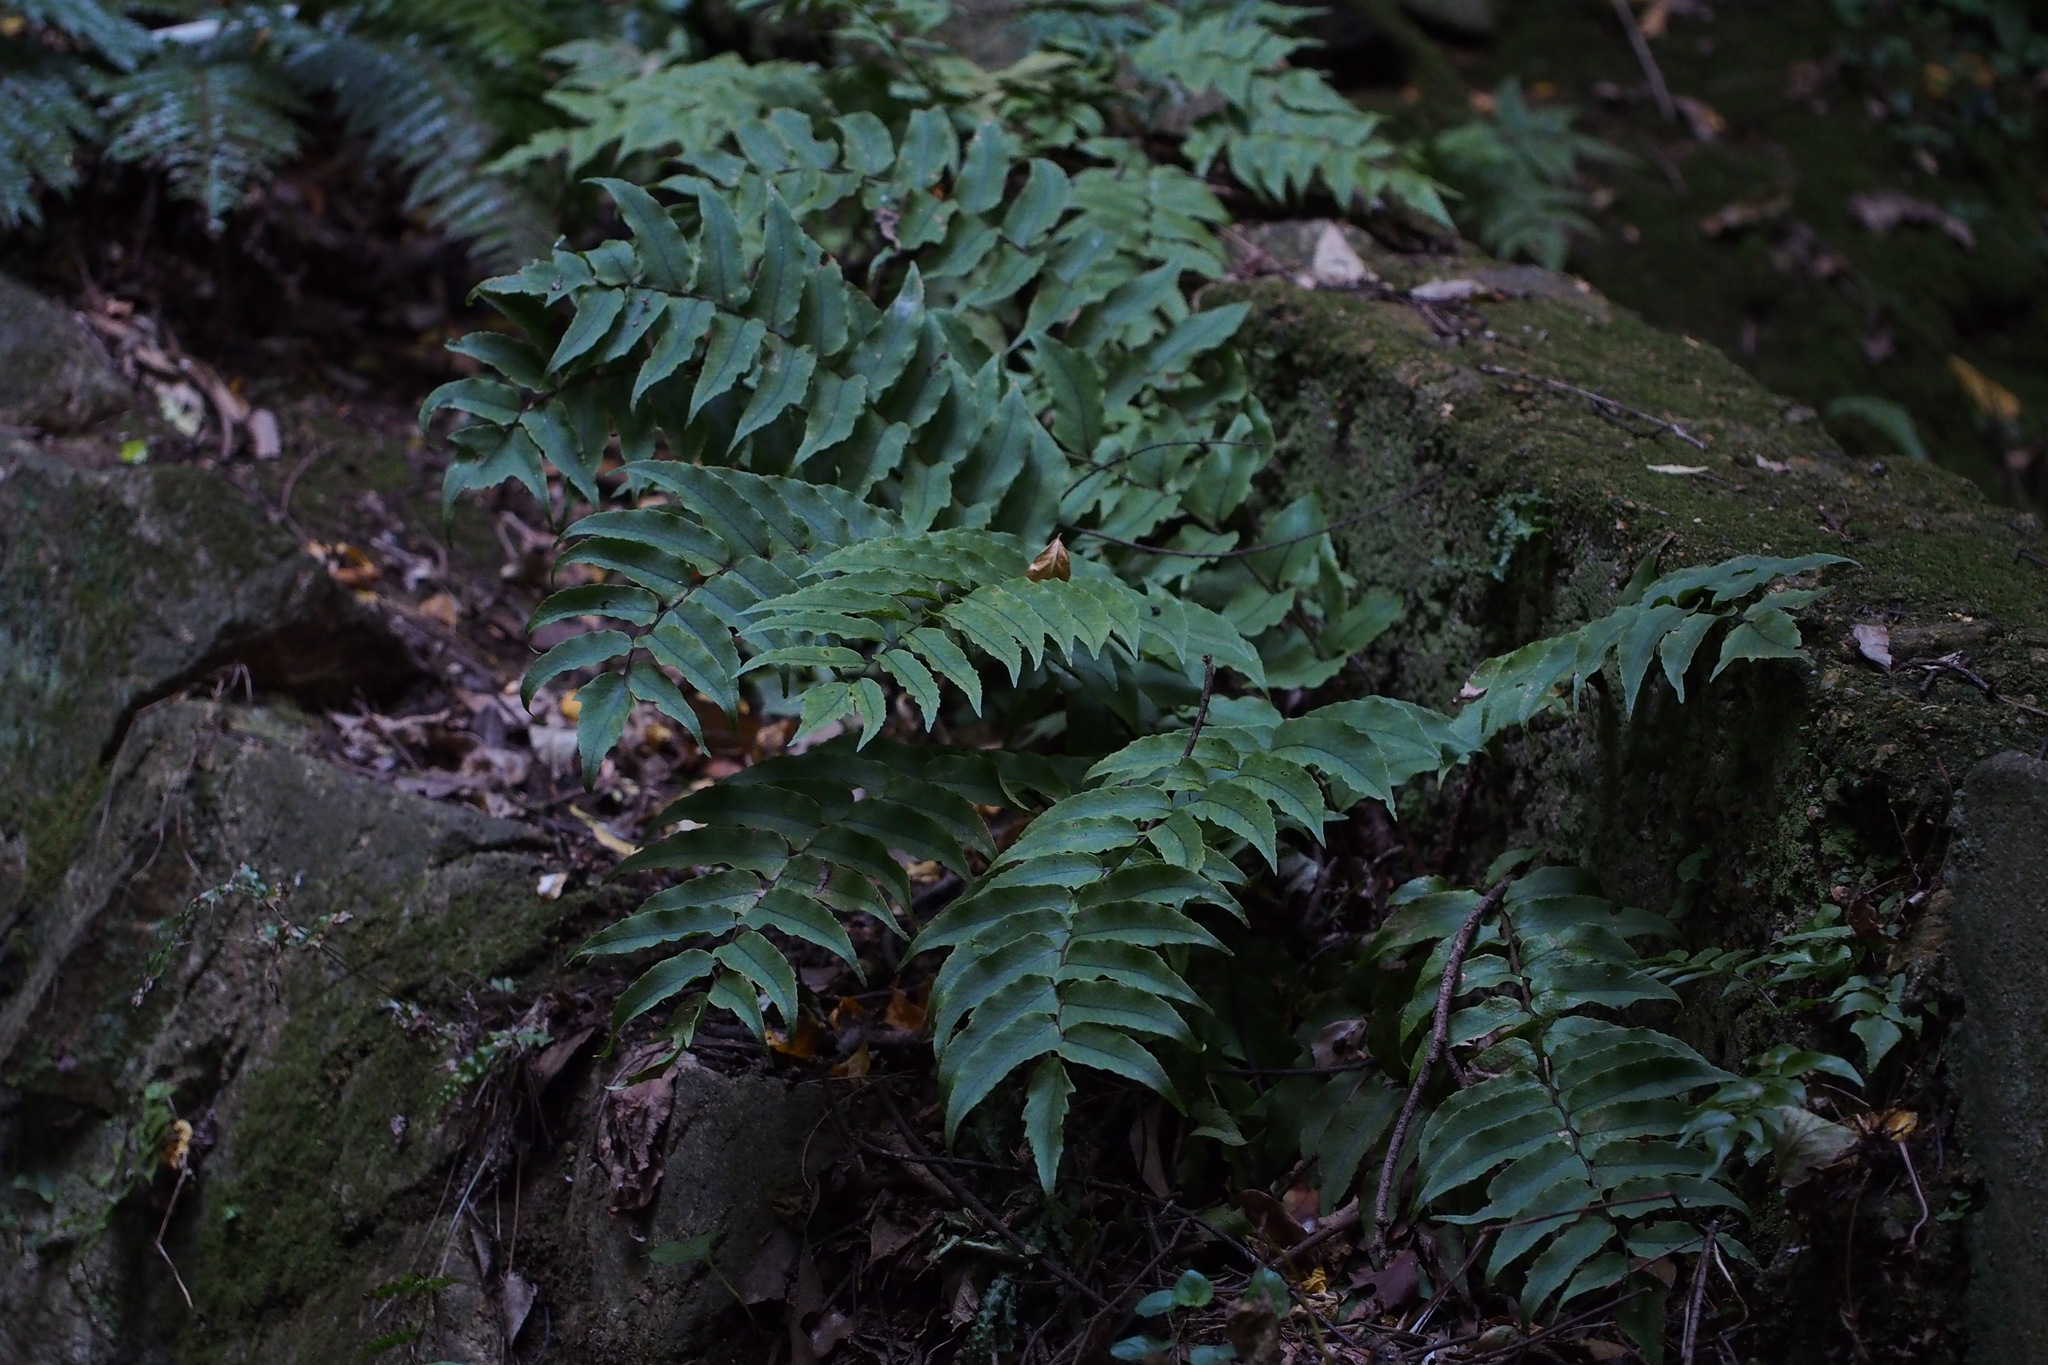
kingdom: Plantae
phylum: Tracheophyta
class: Polypodiopsida
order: Polypodiales
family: Dryopteridaceae
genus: Cyrtomium
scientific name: Cyrtomium fortunei
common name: Asian netvein hollyfern
